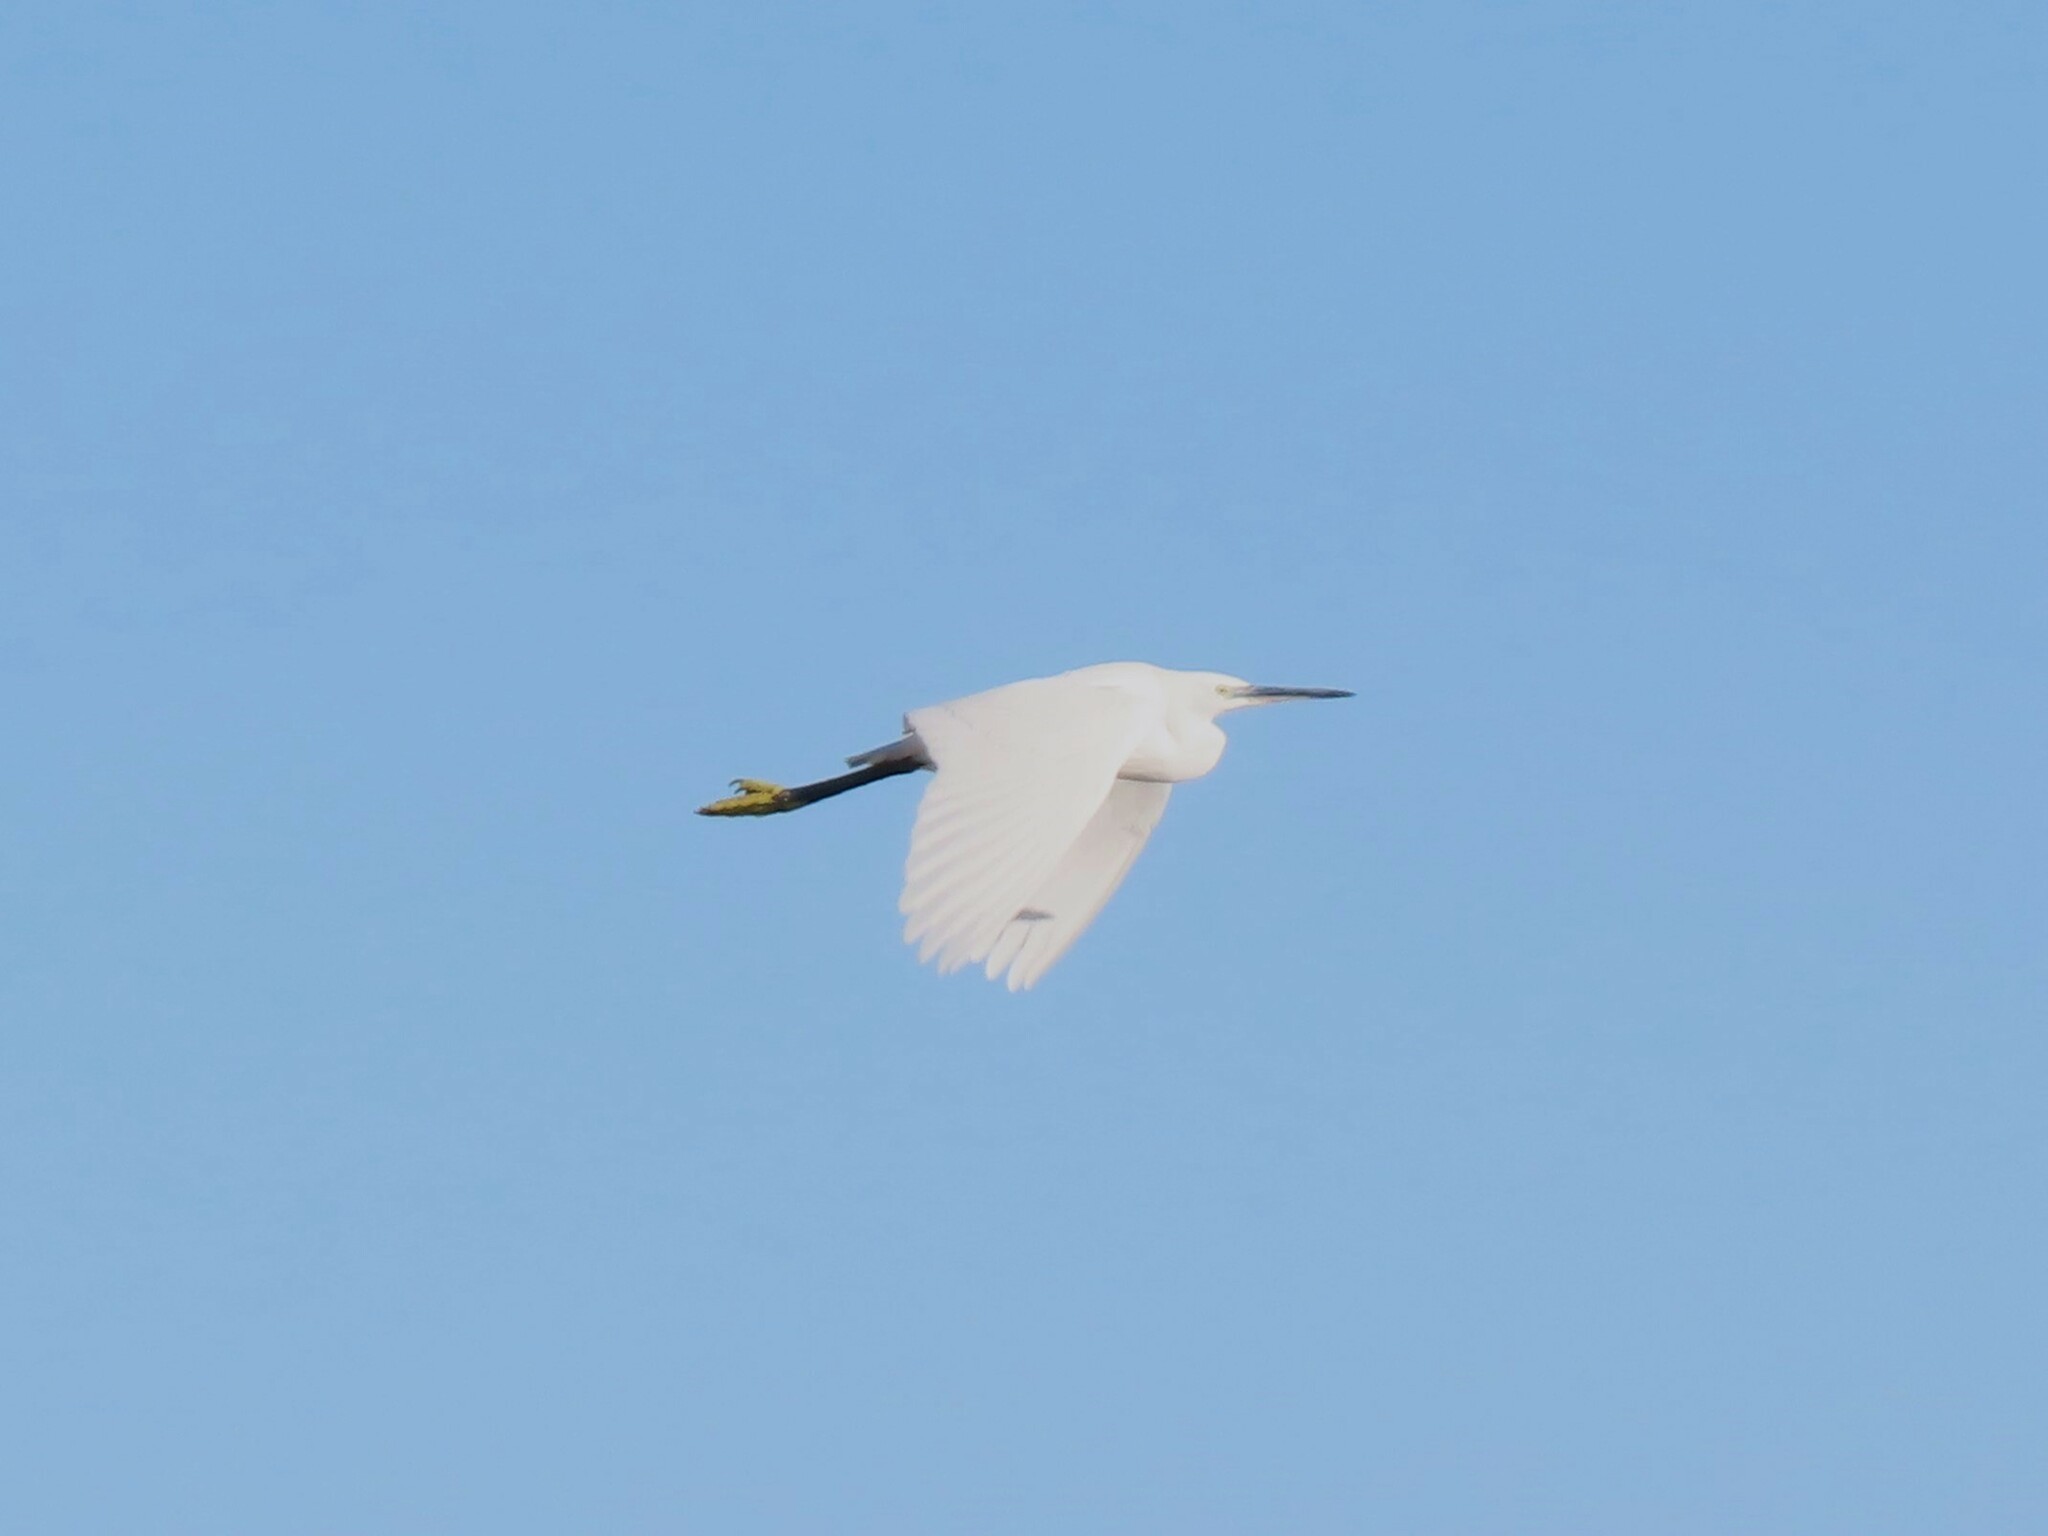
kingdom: Animalia
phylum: Chordata
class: Aves
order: Pelecaniformes
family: Ardeidae
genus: Egretta
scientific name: Egretta garzetta
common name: Little egret
